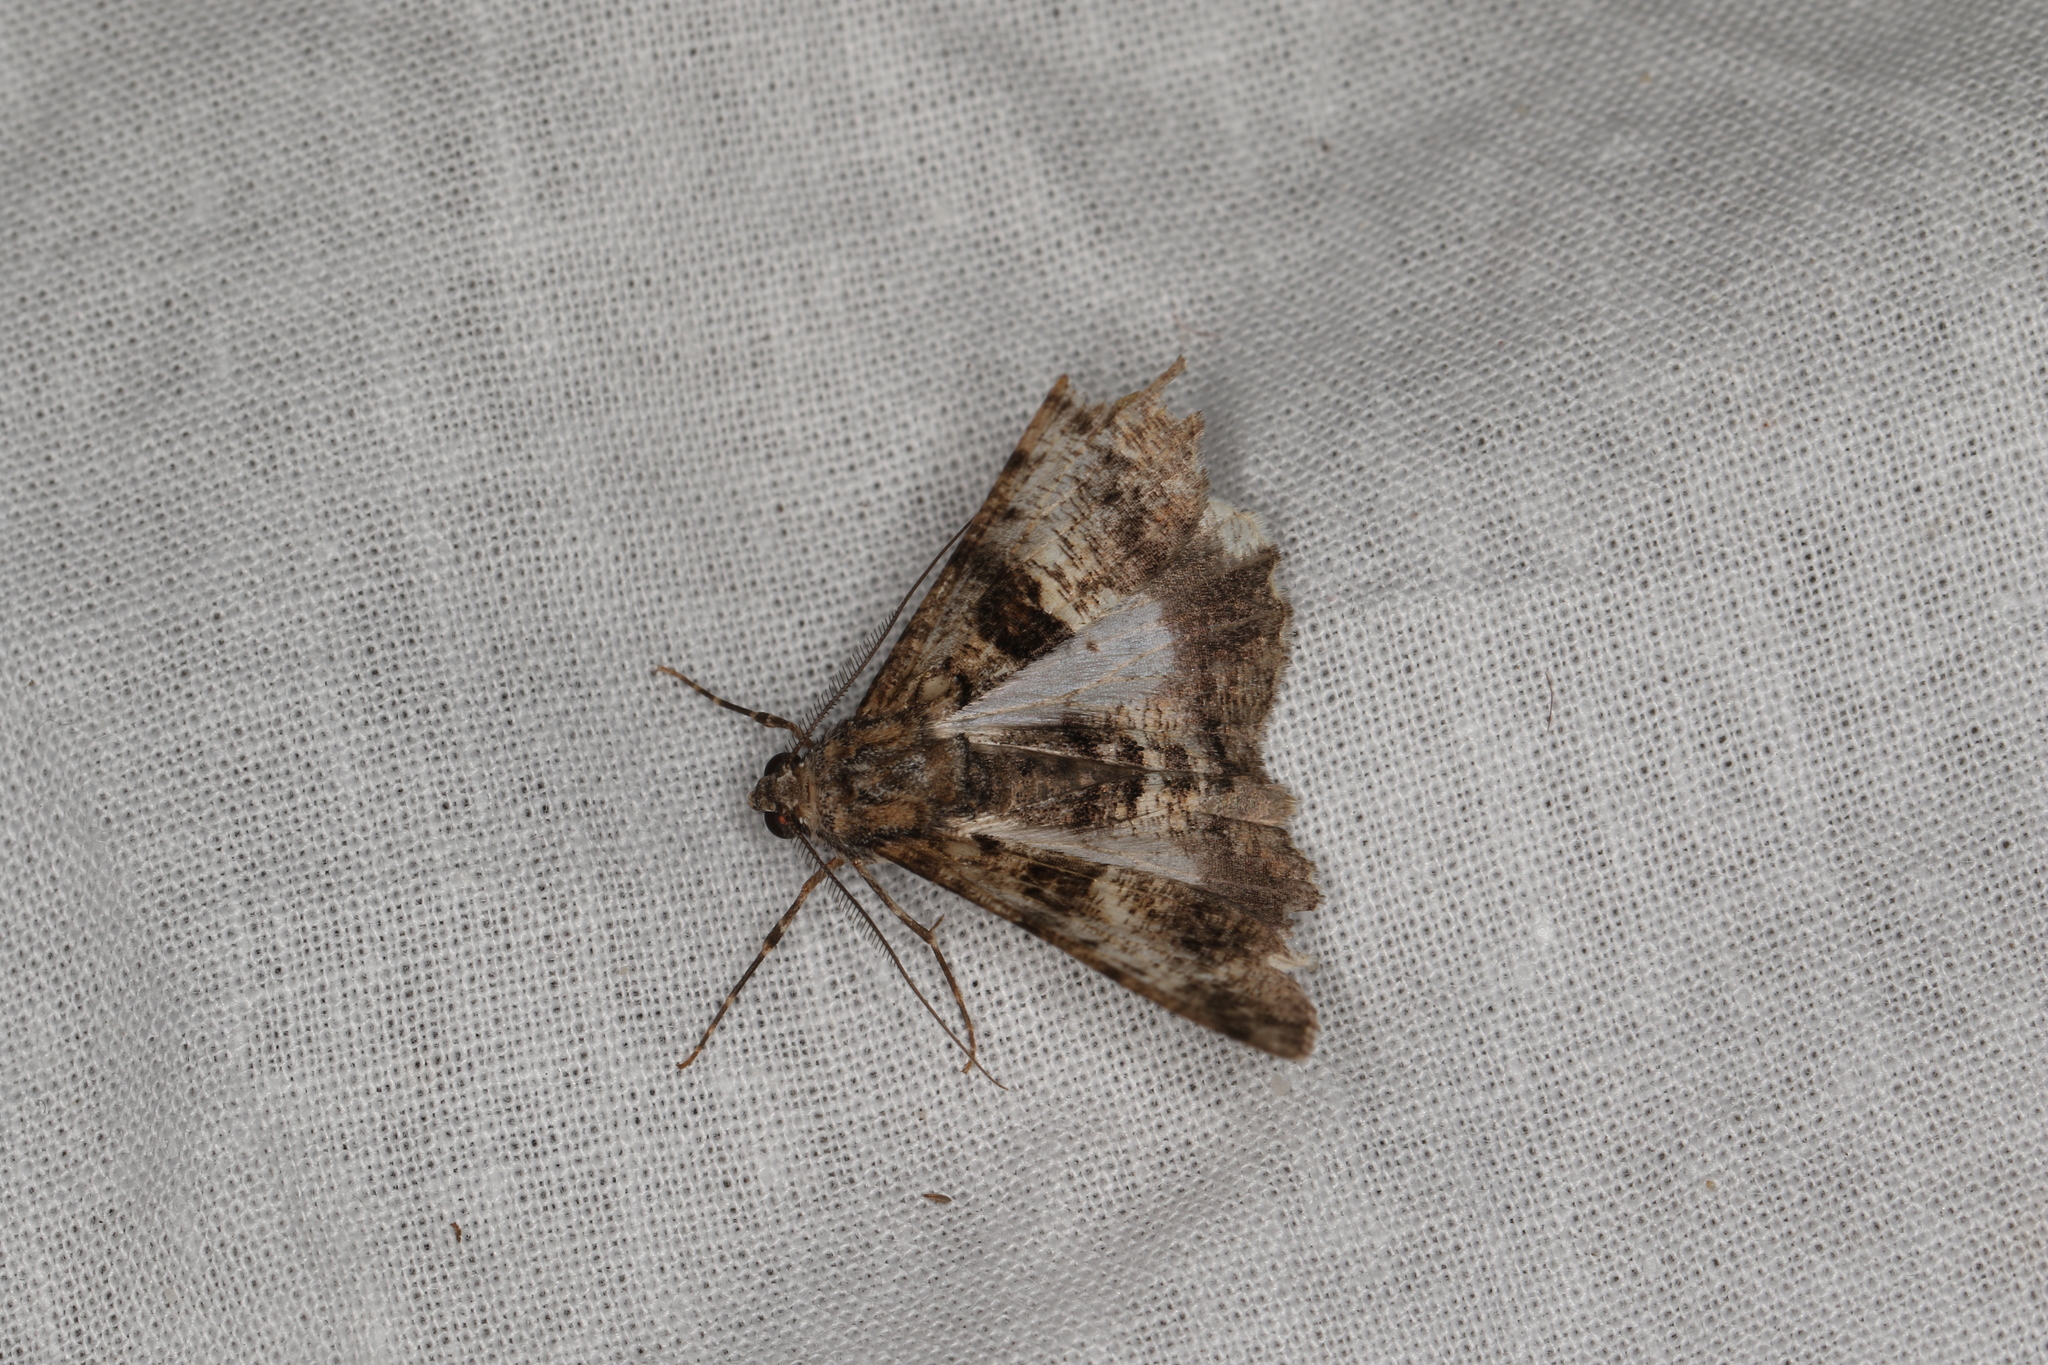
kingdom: Animalia
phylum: Arthropoda
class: Insecta
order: Lepidoptera
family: Geometridae
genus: Gastrinodes
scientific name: Gastrinodes argoplaca
